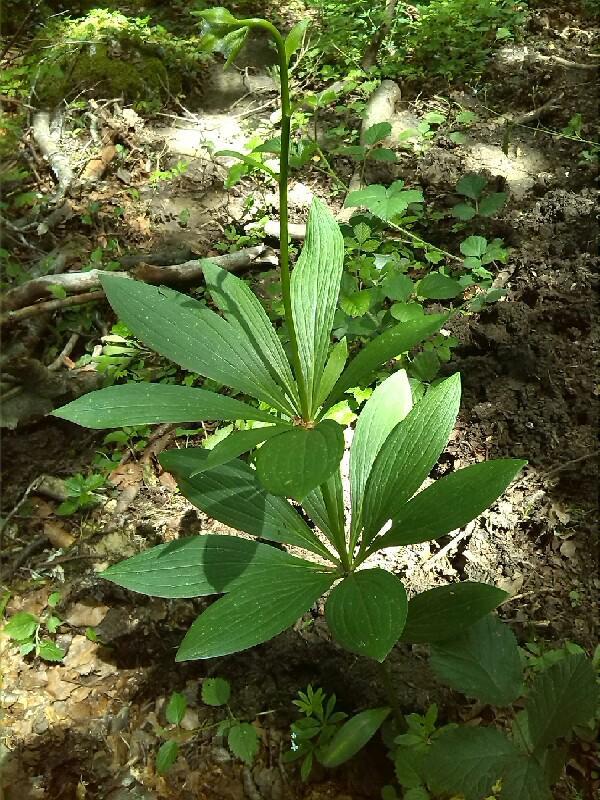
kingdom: Plantae
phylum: Tracheophyta
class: Liliopsida
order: Liliales
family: Liliaceae
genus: Lilium
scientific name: Lilium martagon
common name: Martagon lily
